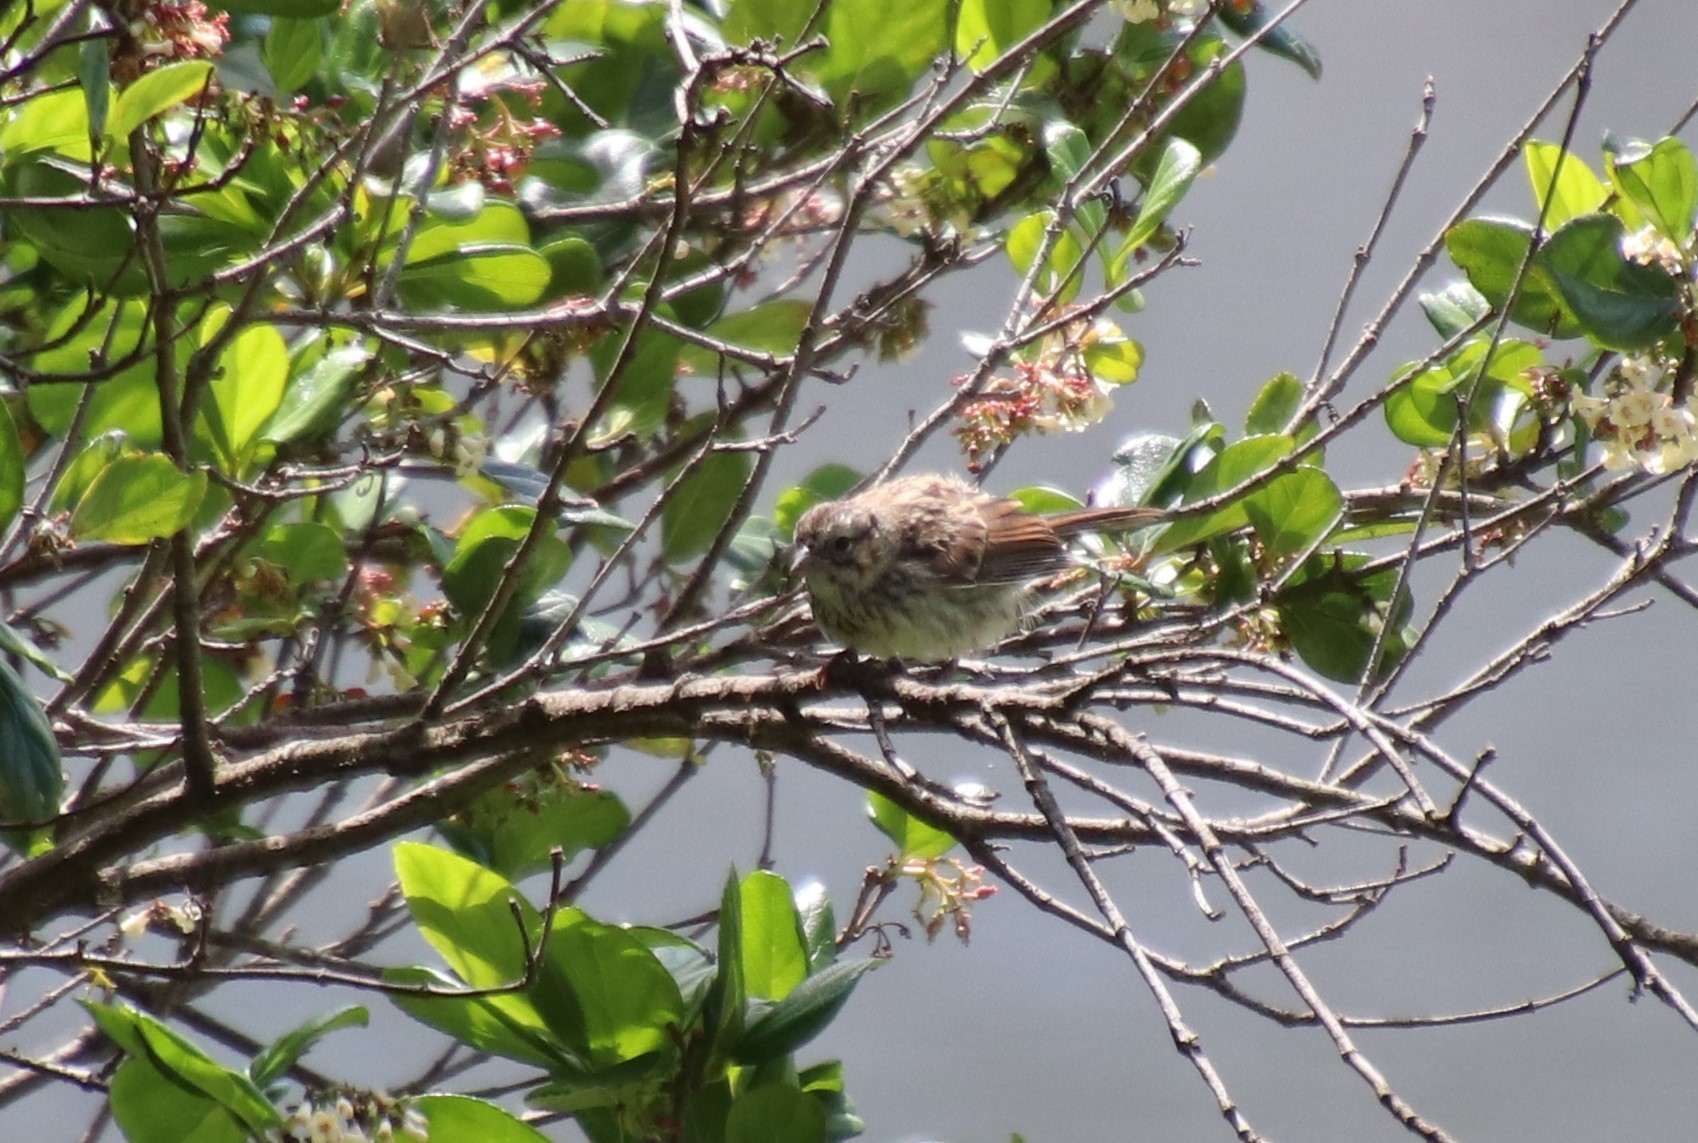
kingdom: Animalia
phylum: Chordata
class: Aves
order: Passeriformes
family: Passerellidae
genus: Melospiza
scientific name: Melospiza melodia
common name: Song sparrow
